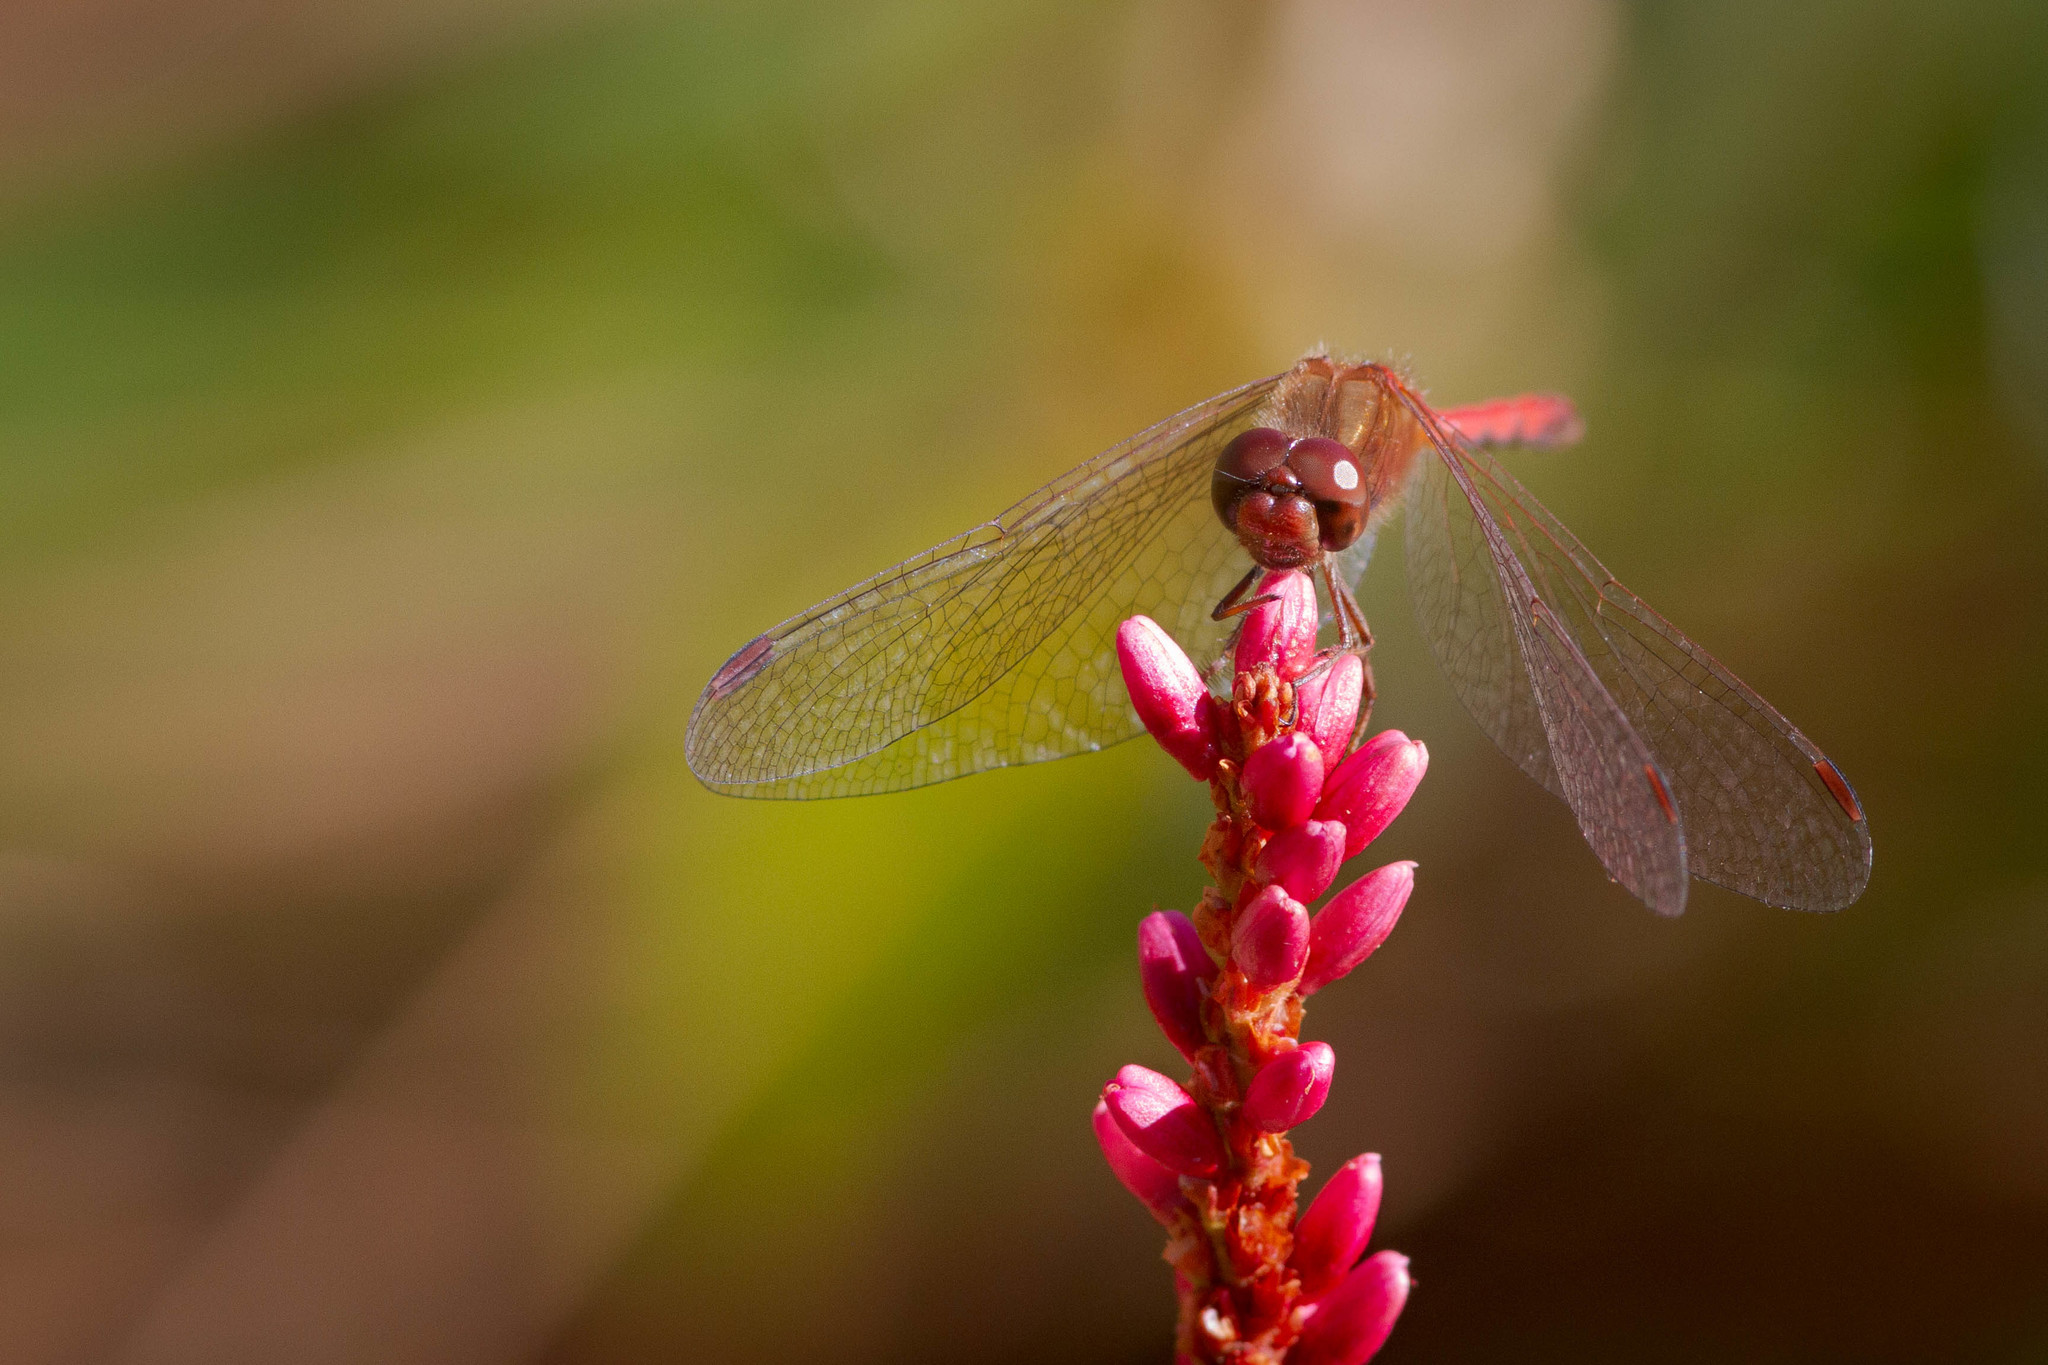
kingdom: Animalia
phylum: Arthropoda
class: Insecta
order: Odonata
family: Libellulidae
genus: Sympetrum
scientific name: Sympetrum vicinum
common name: Autumn meadowhawk
